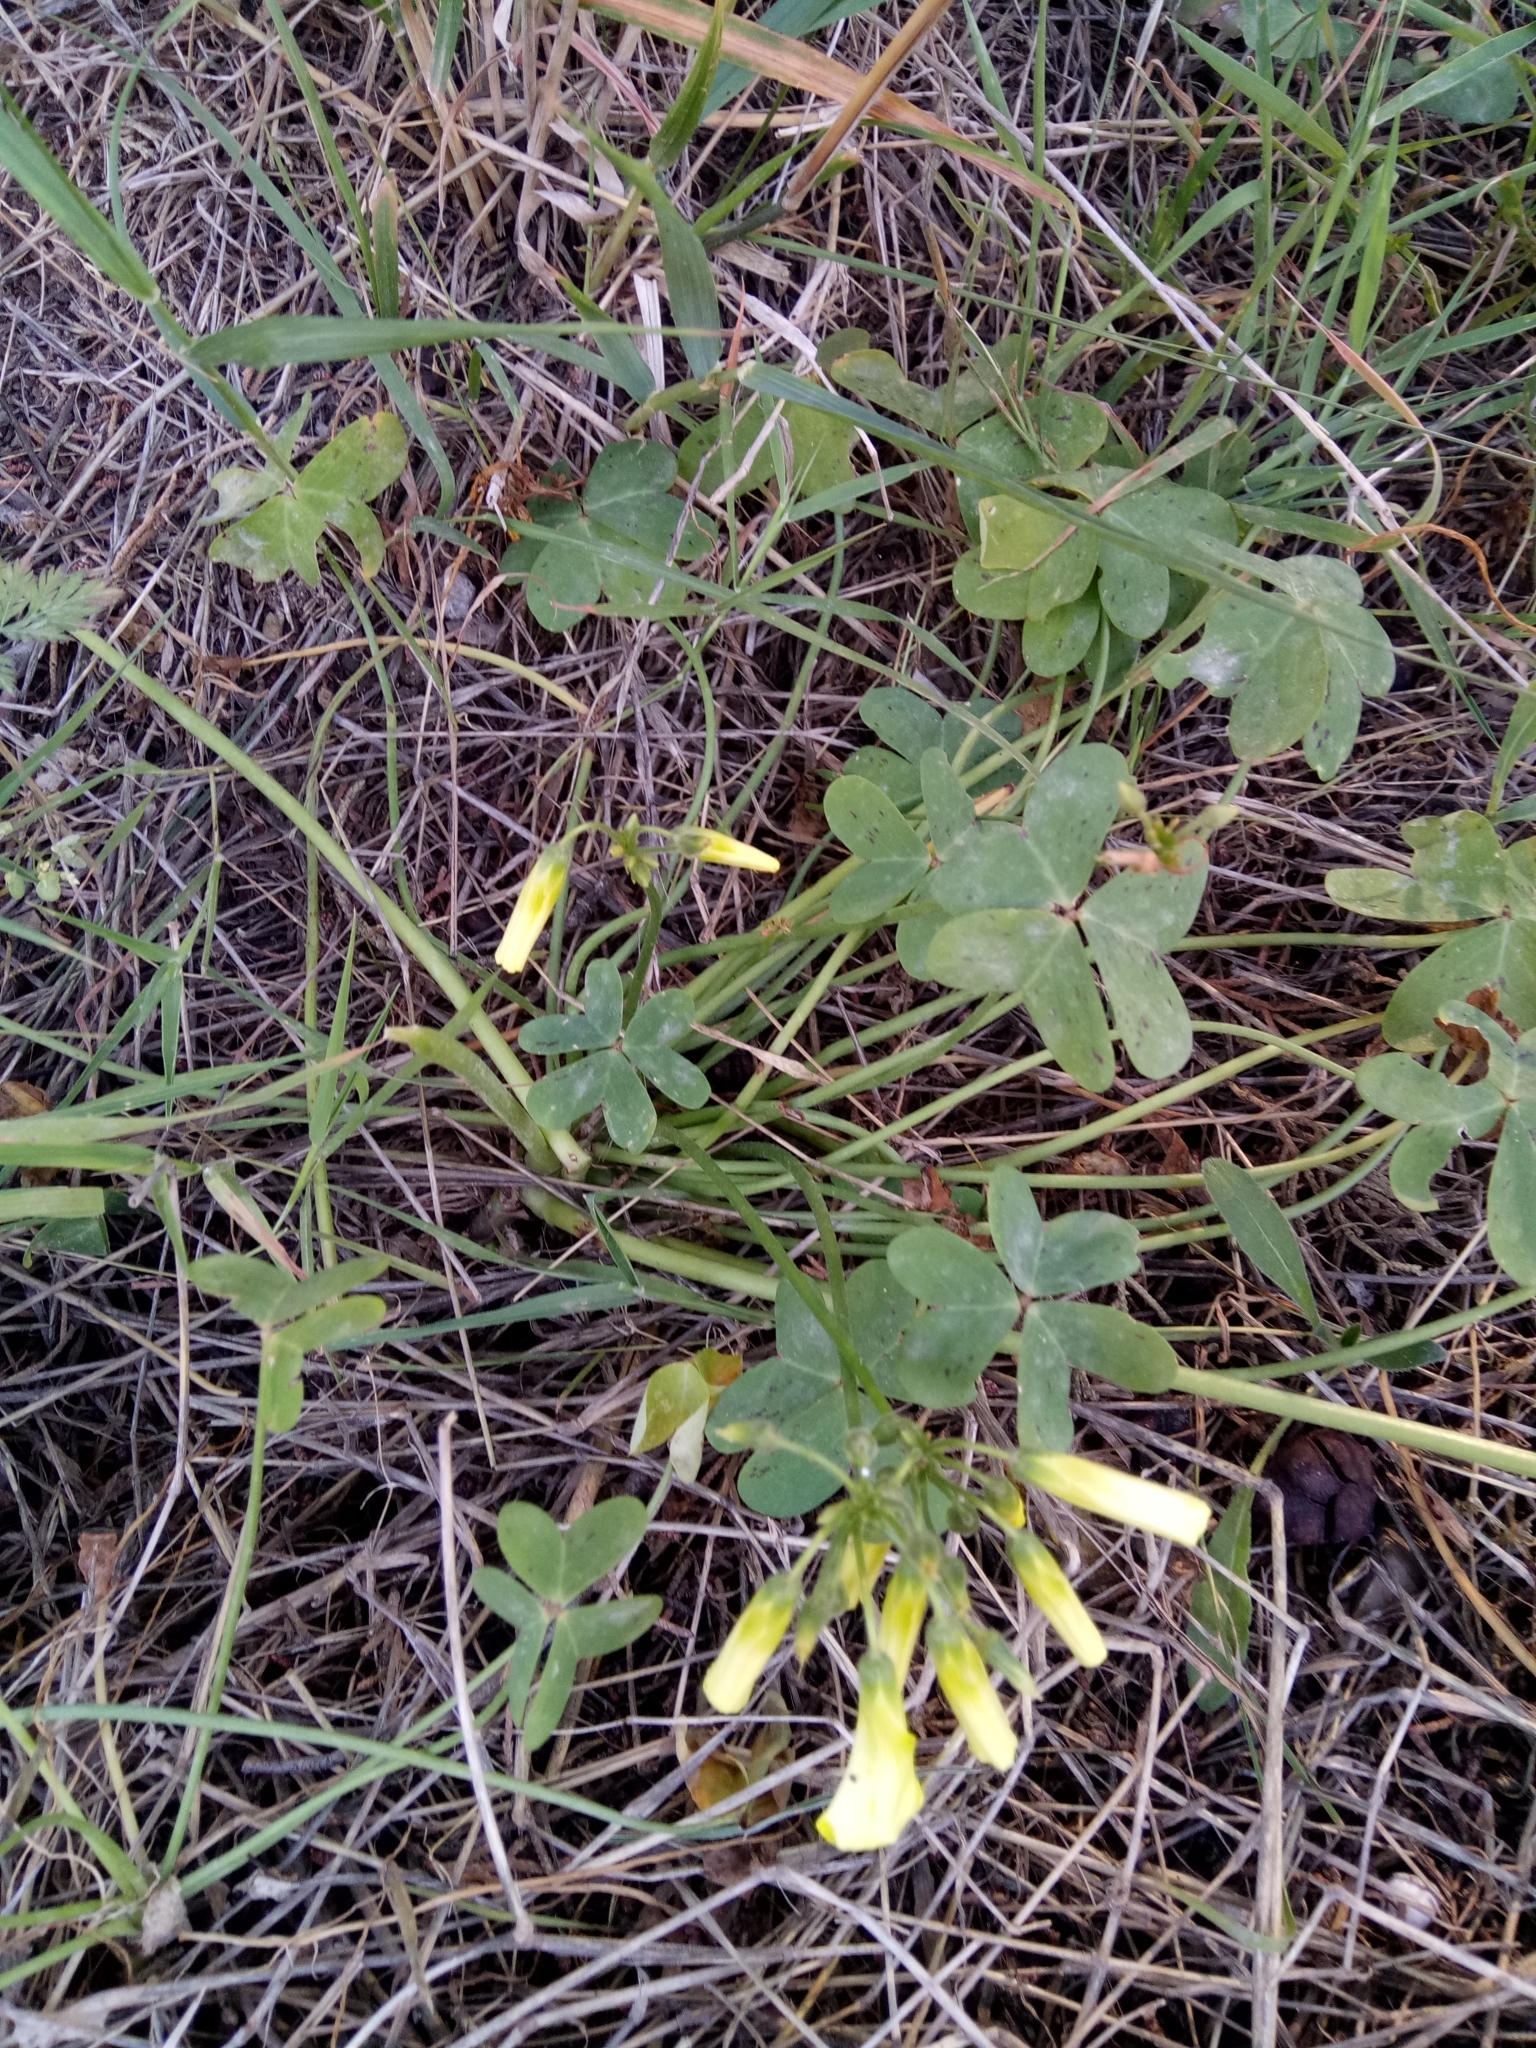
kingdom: Plantae
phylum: Tracheophyta
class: Magnoliopsida
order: Oxalidales
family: Oxalidaceae
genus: Oxalis
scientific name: Oxalis pes-caprae
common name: Bermuda-buttercup
